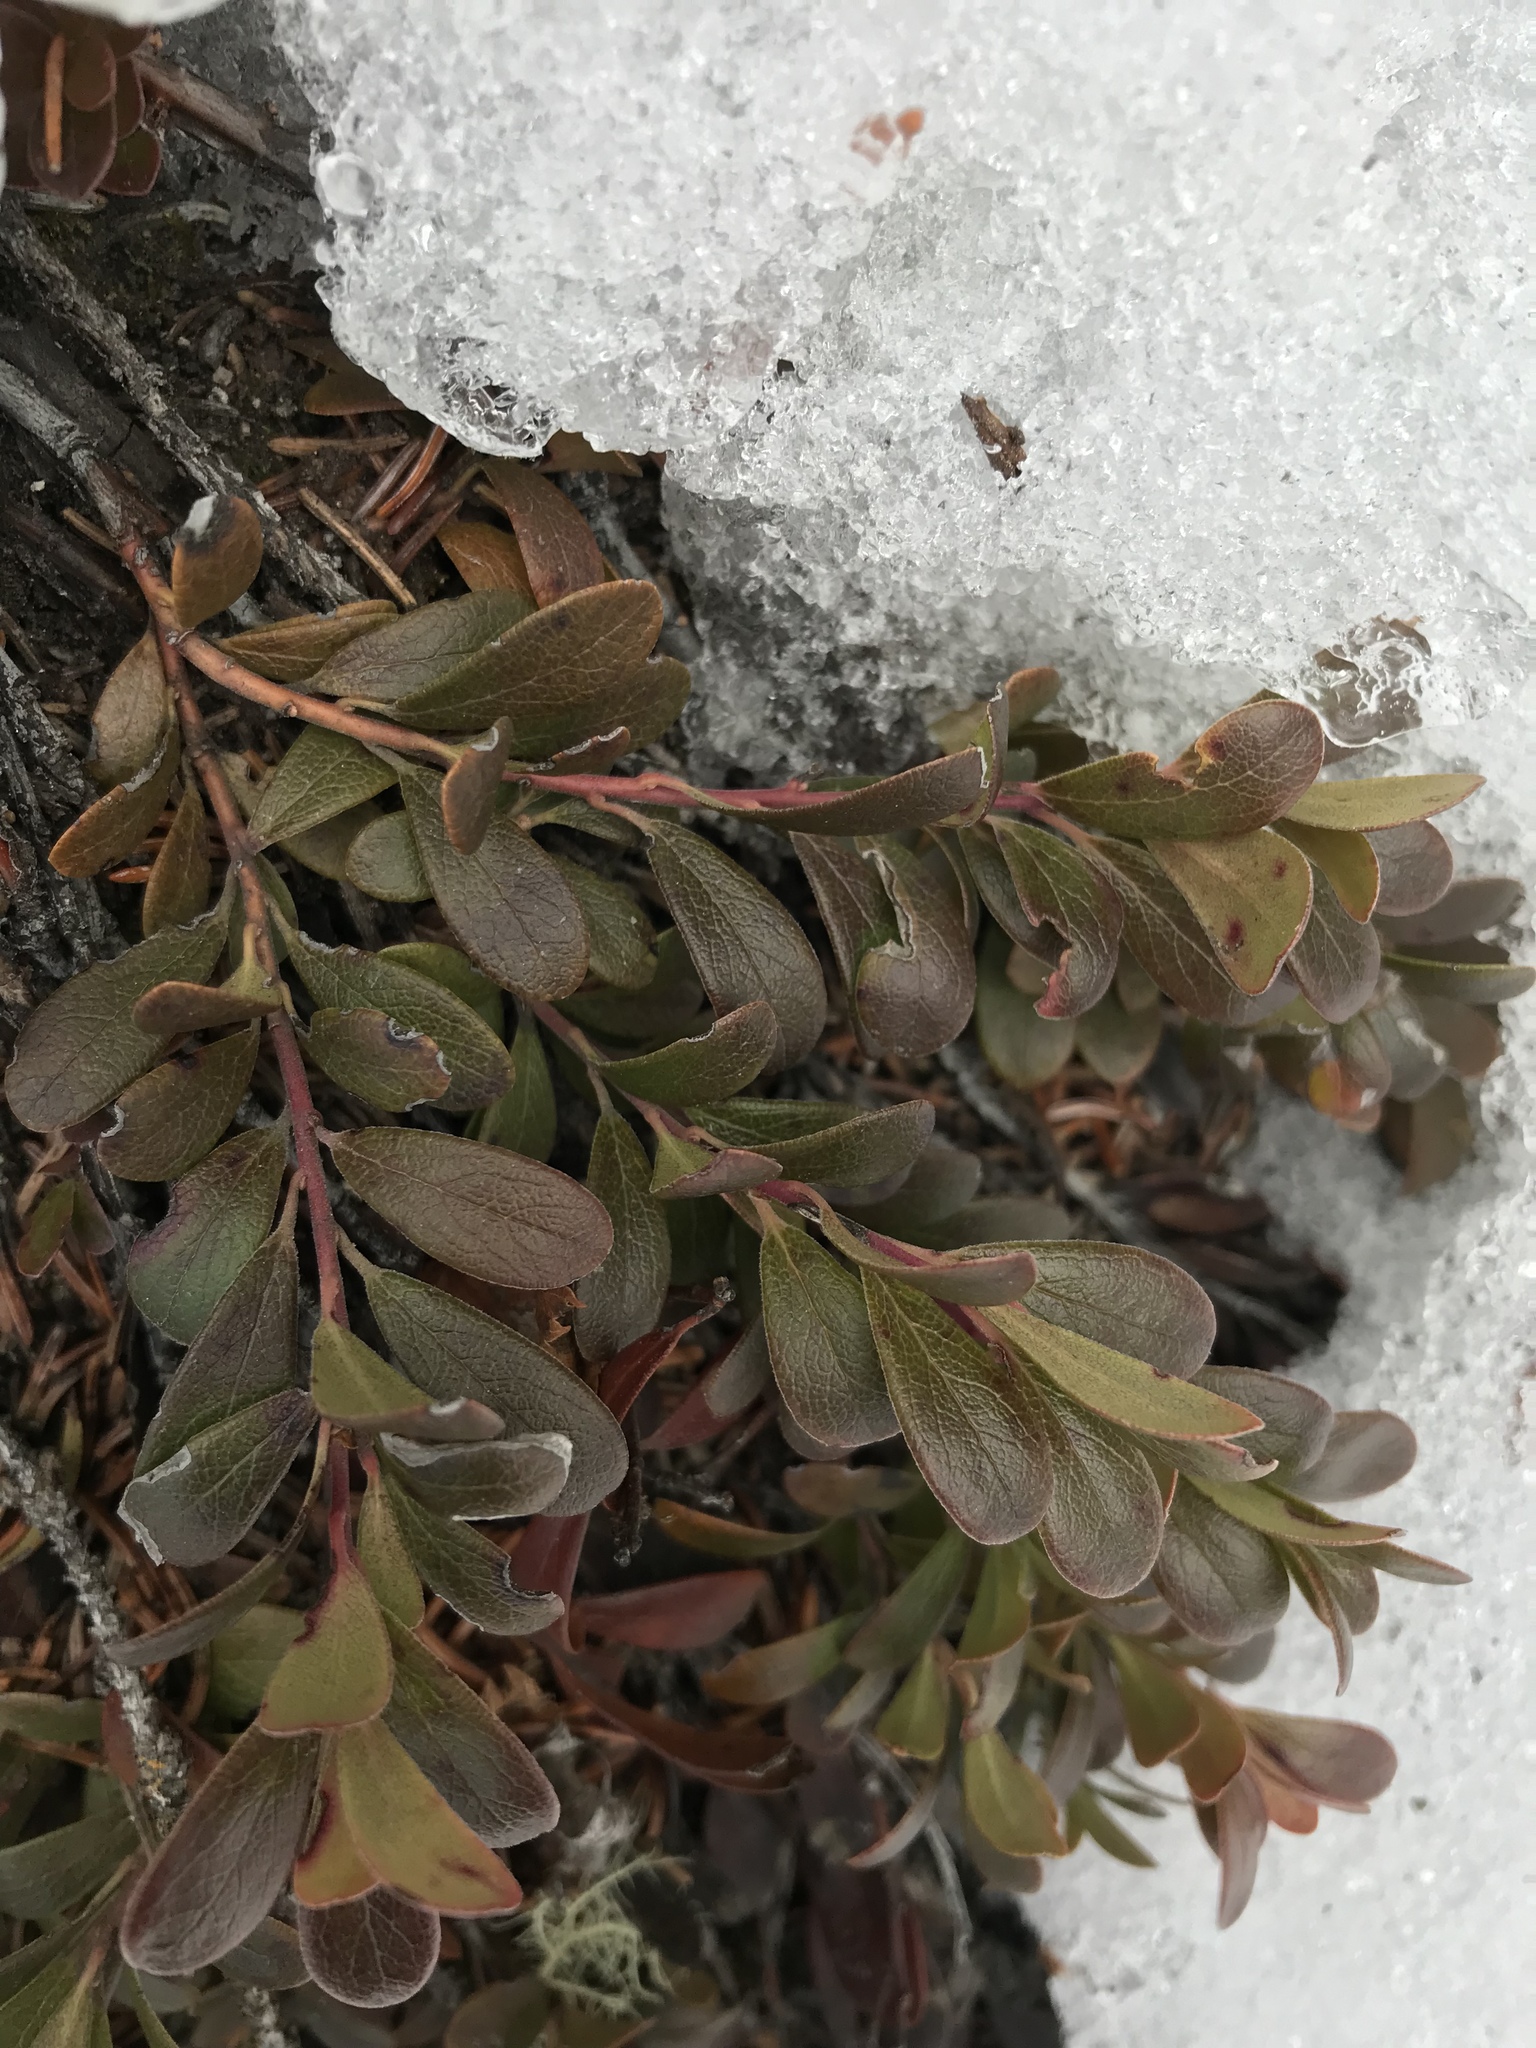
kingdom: Plantae
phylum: Tracheophyta
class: Magnoliopsida
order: Ericales
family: Ericaceae
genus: Arctostaphylos
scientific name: Arctostaphylos uva-ursi
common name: Bearberry
